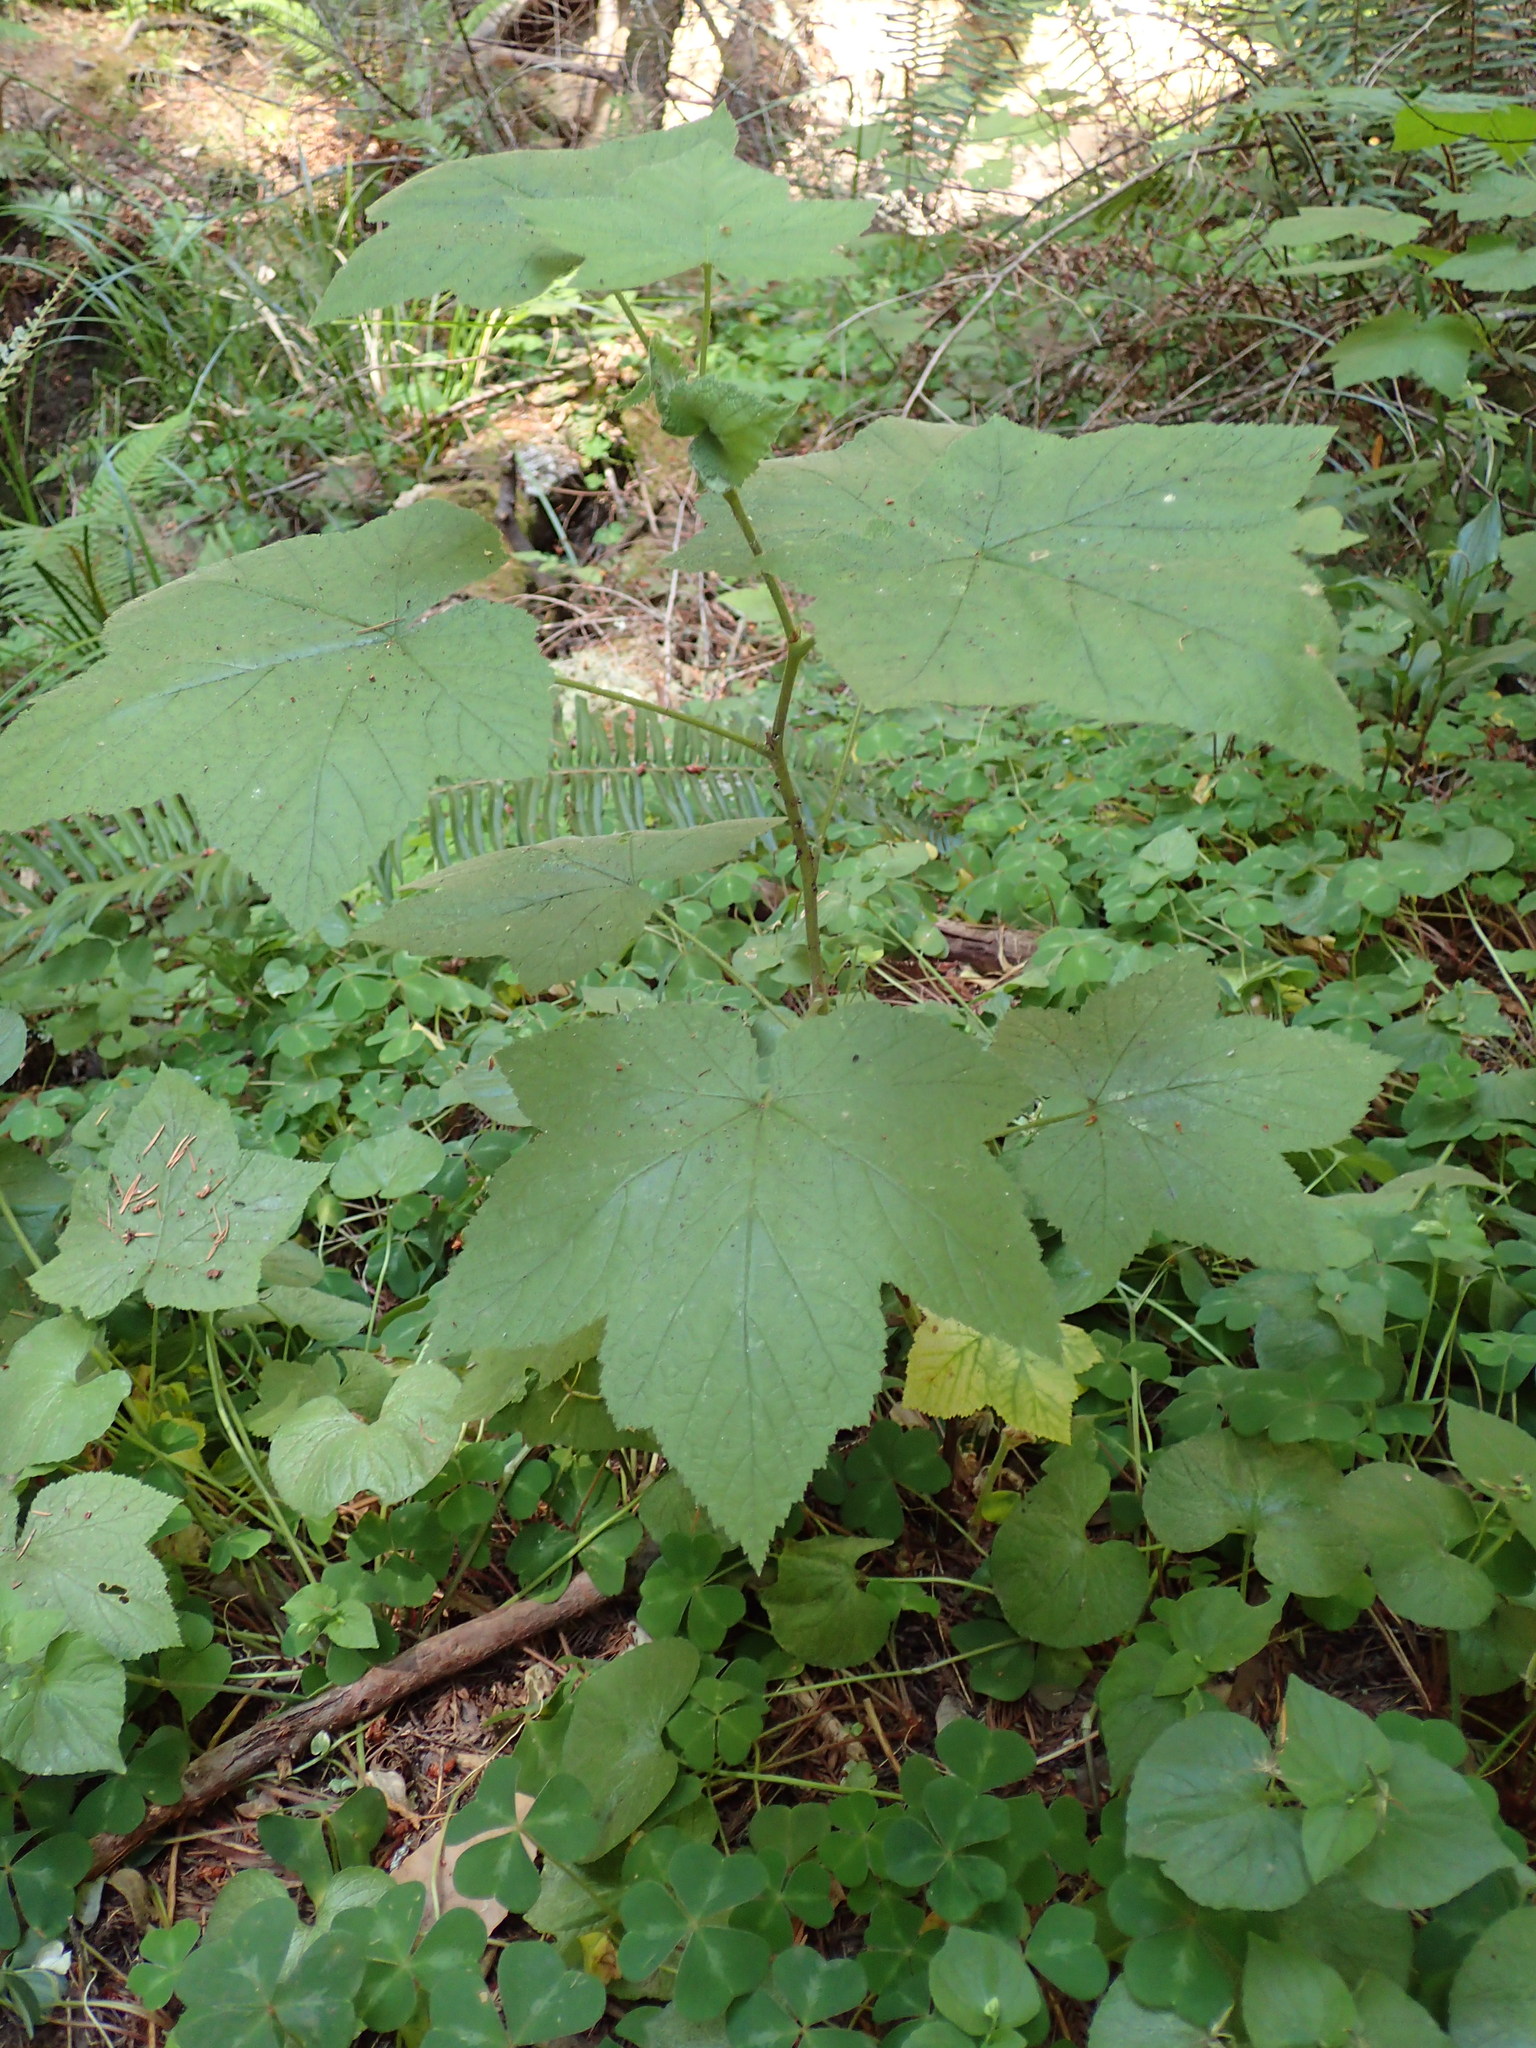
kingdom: Plantae
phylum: Tracheophyta
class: Magnoliopsida
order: Rosales
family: Rosaceae
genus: Rubus
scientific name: Rubus parviflorus
